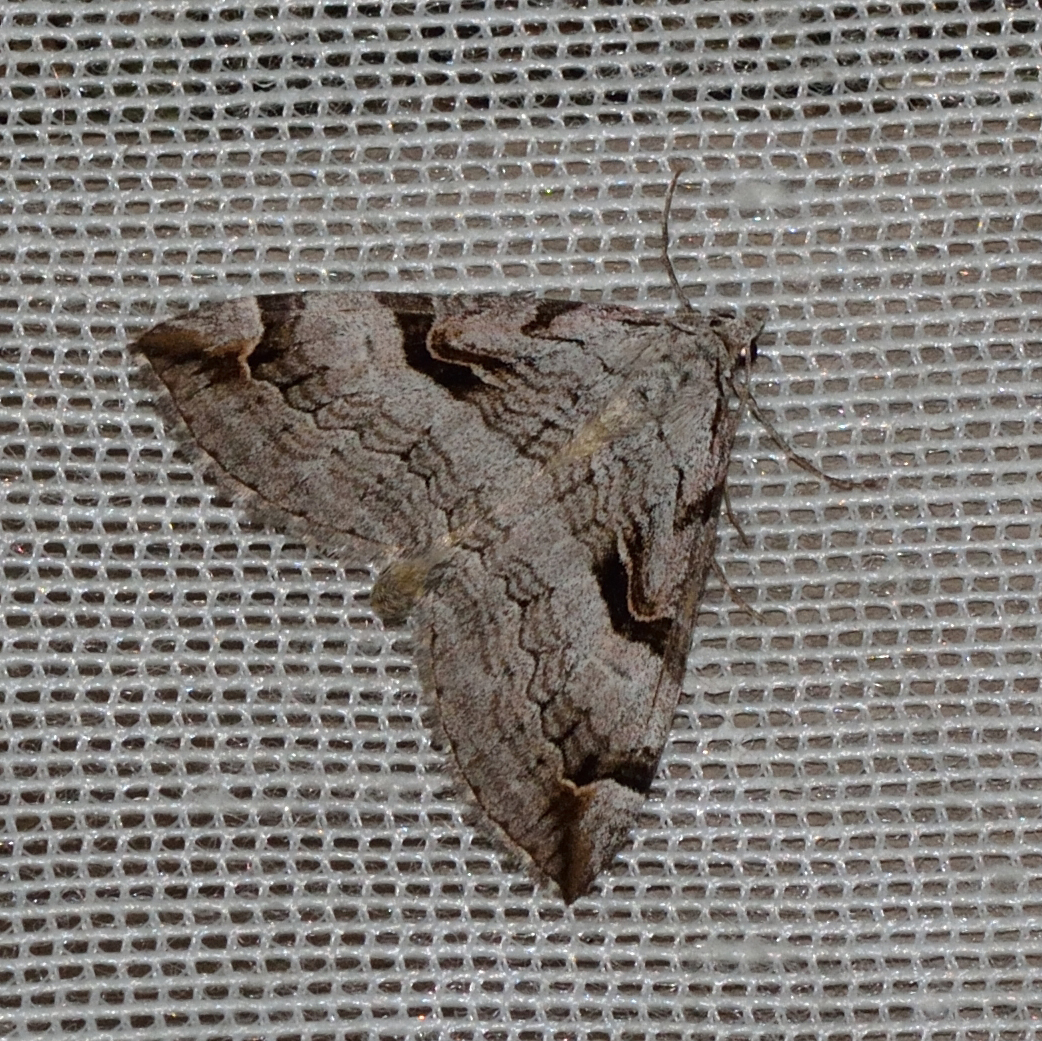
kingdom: Animalia
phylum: Arthropoda
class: Insecta
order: Lepidoptera
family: Geometridae
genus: Aplocera
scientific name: Aplocera praeformata
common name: Purple treble-bar
